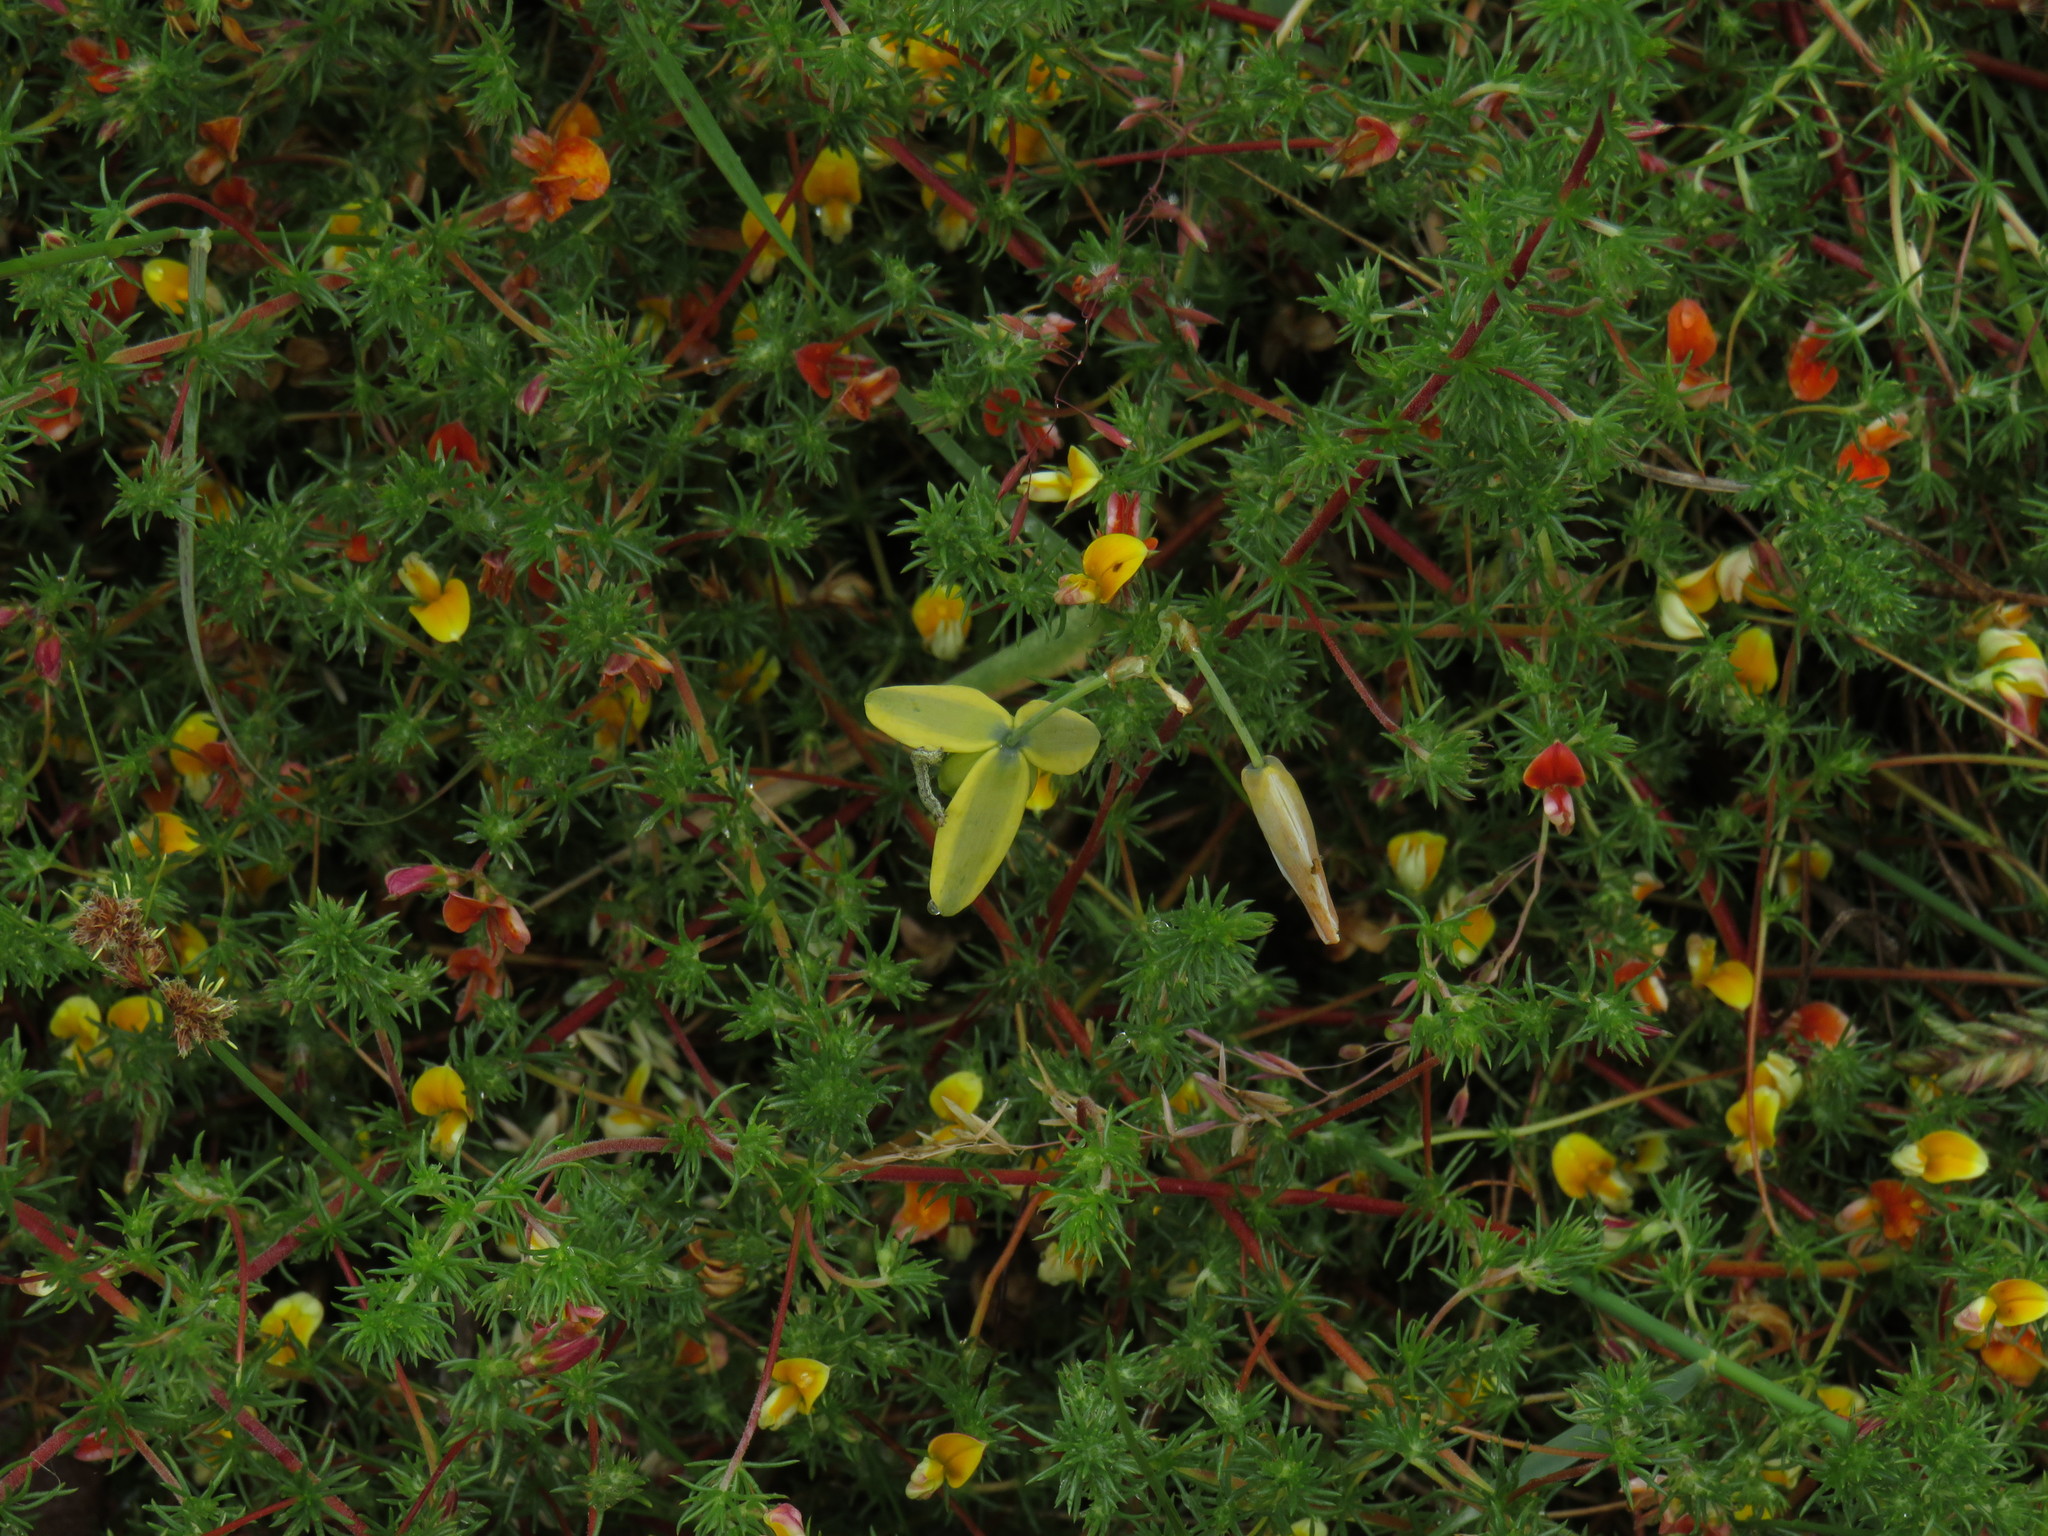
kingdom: Plantae
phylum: Tracheophyta
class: Liliopsida
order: Asparagales
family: Asparagaceae
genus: Albuca
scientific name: Albuca cooperi
